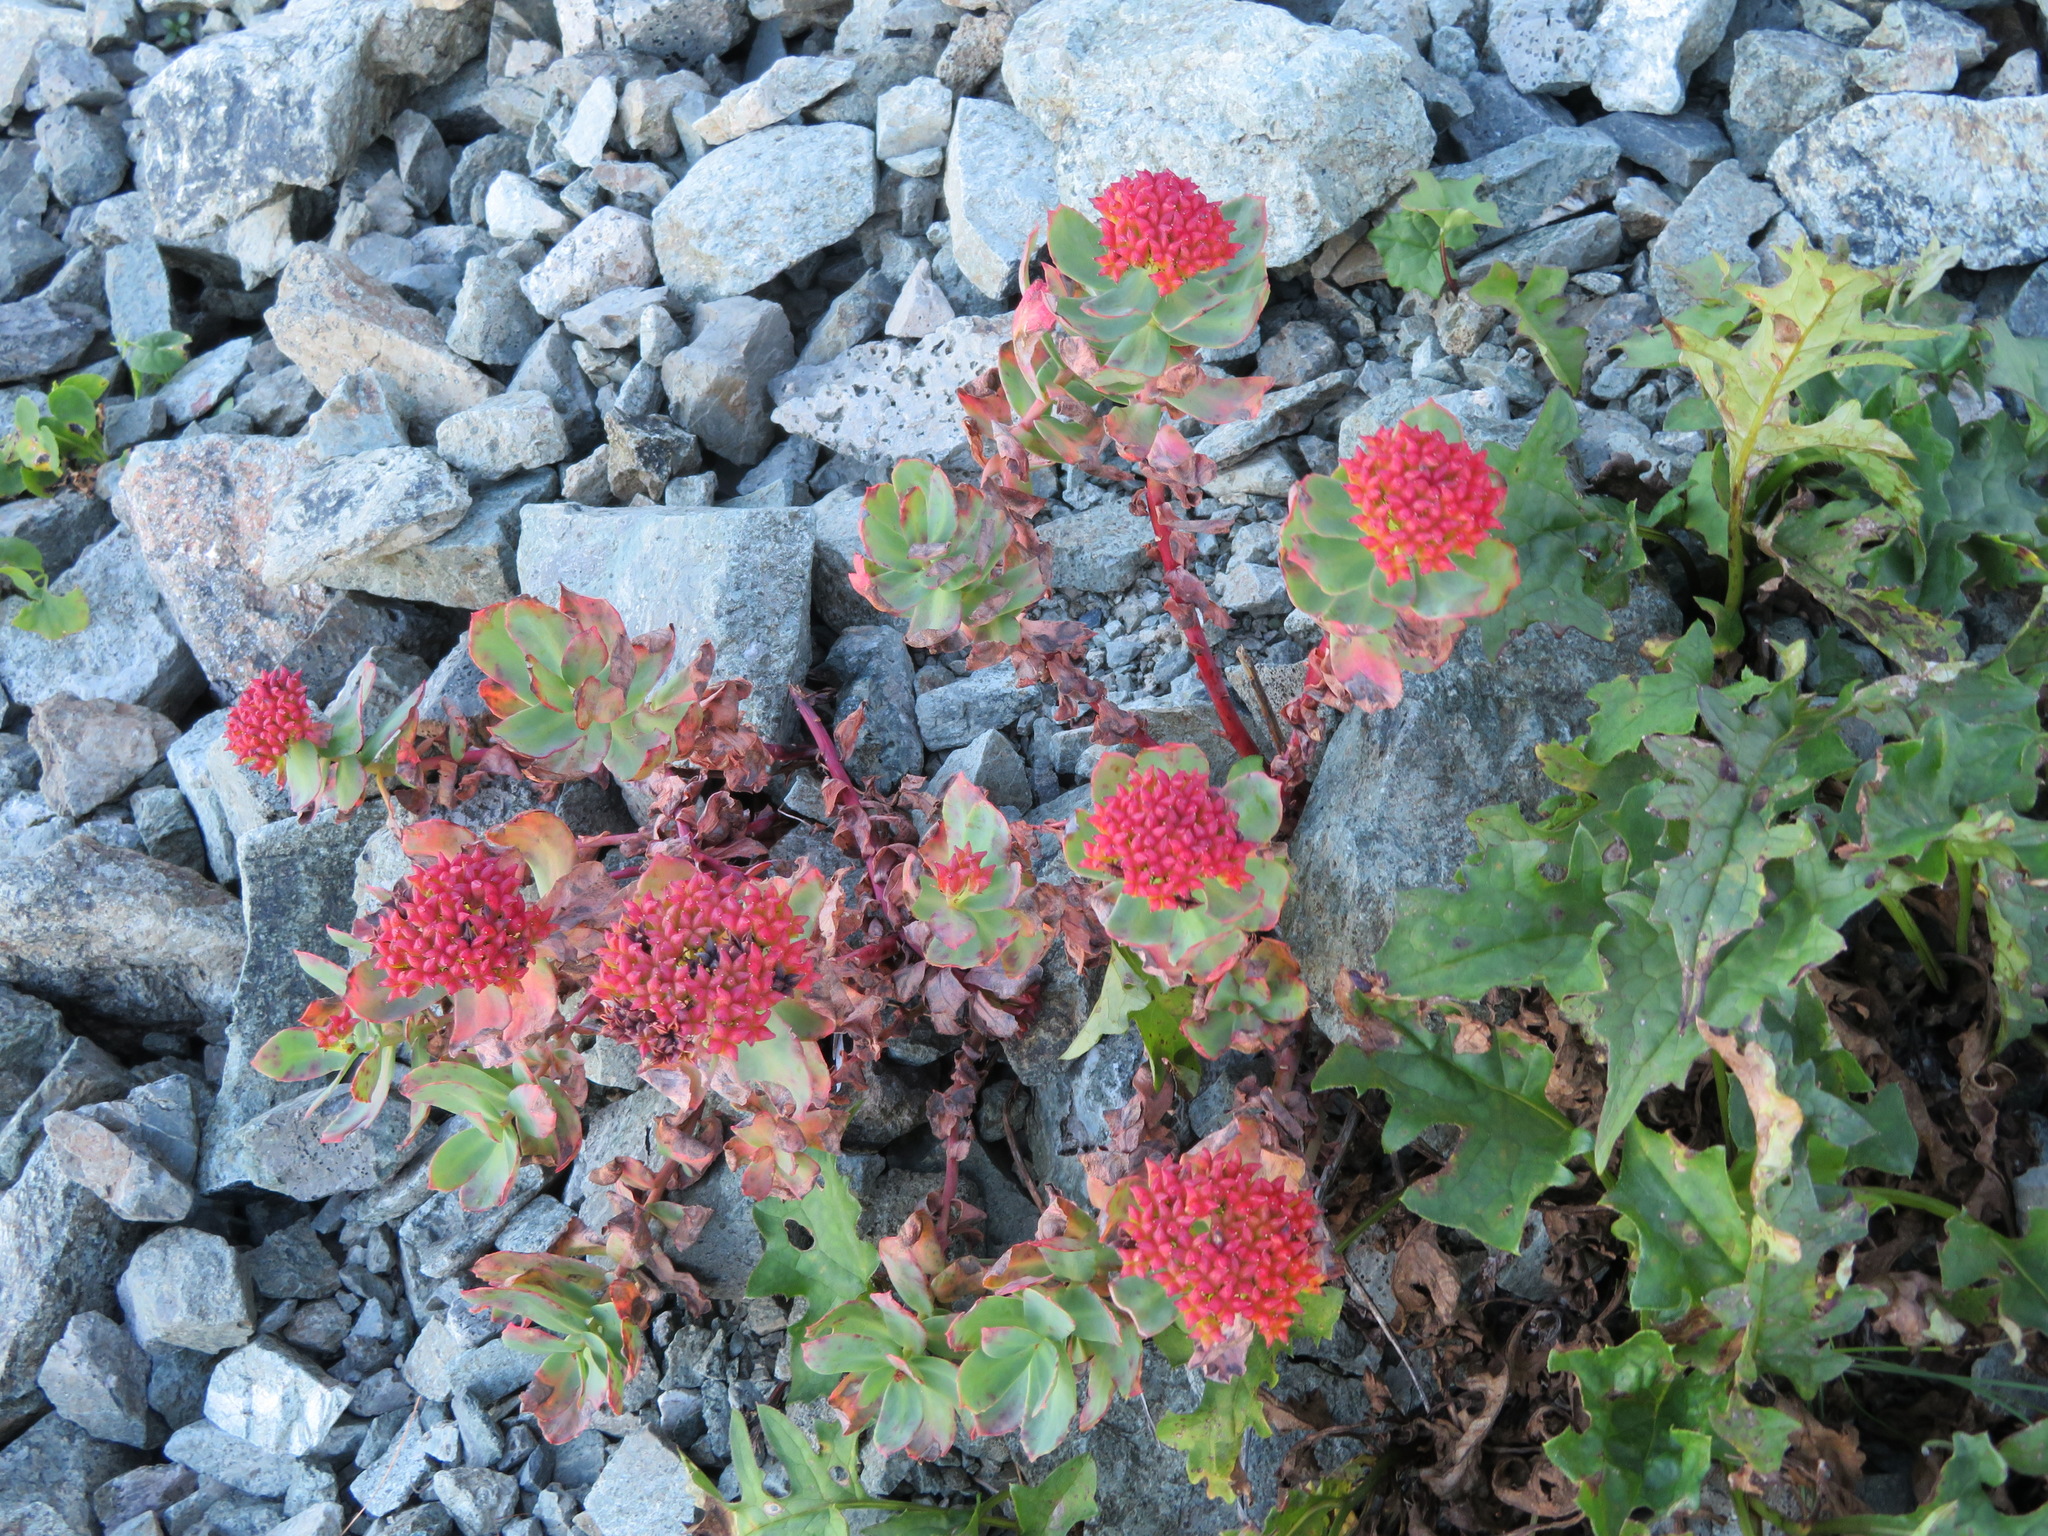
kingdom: Plantae
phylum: Tracheophyta
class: Magnoliopsida
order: Saxifragales
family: Crassulaceae
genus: Rhodiola
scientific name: Rhodiola rosea
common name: Roseroot
